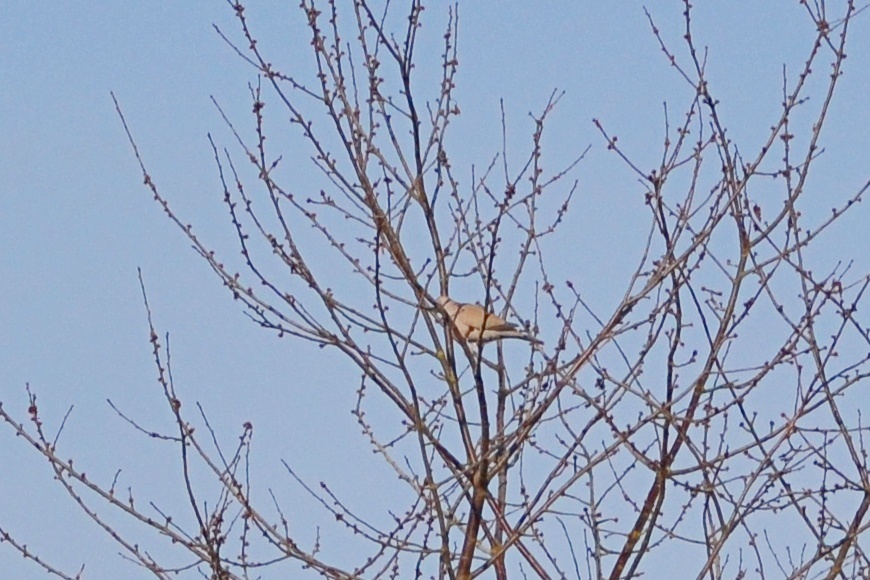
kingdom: Animalia
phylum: Chordata
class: Aves
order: Columbiformes
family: Columbidae
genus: Streptopelia
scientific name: Streptopelia decaocto
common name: Eurasian collared dove
